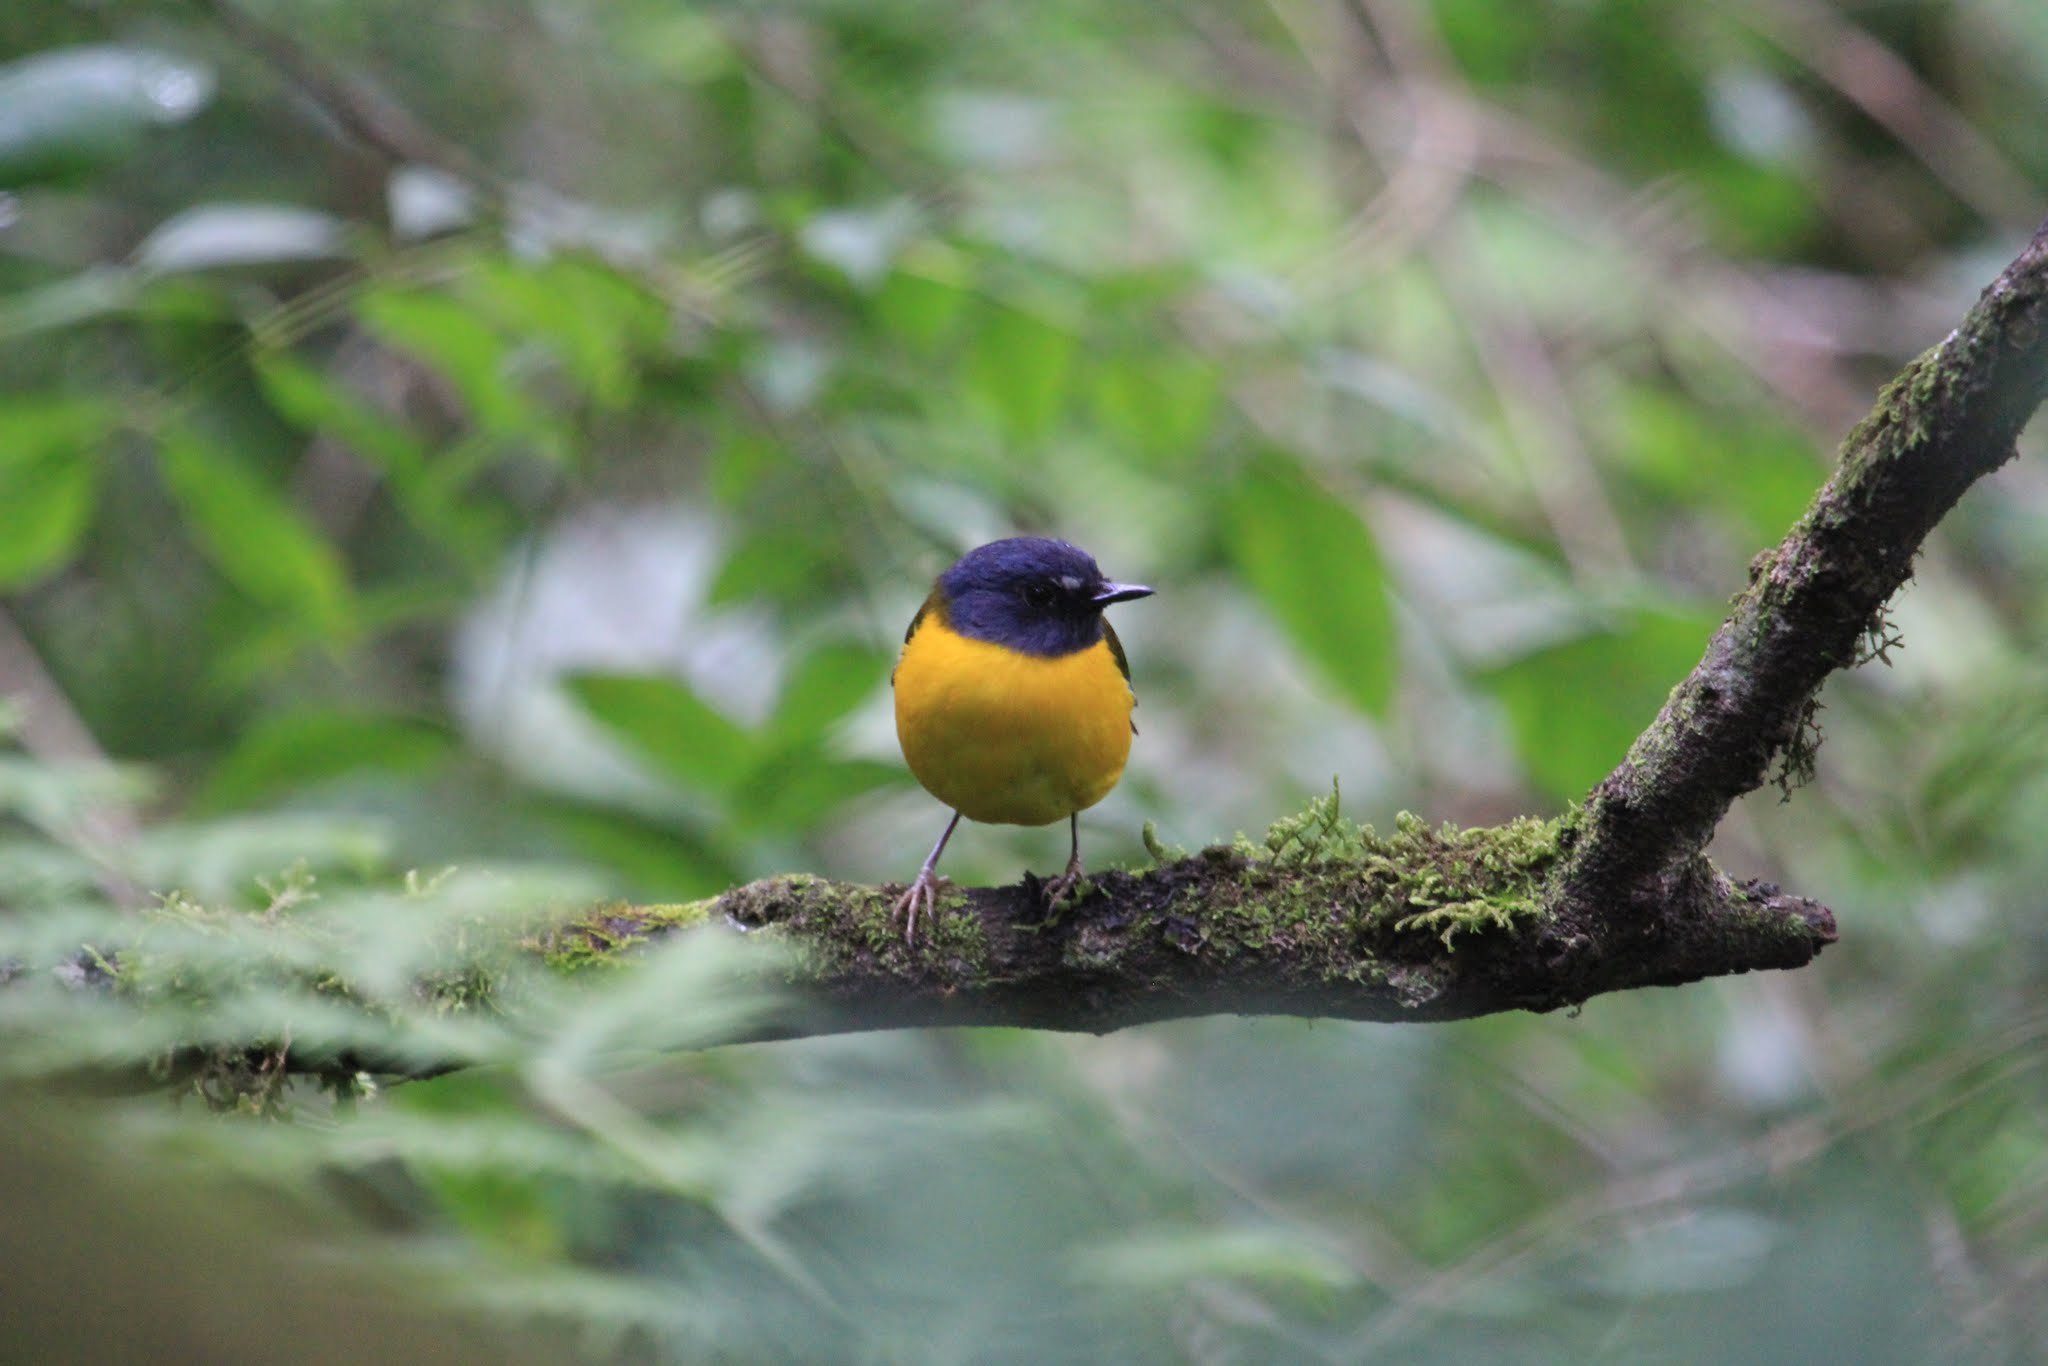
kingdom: Animalia
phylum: Chordata
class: Aves
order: Passeriformes
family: Muscicapidae
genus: Pogonocichla
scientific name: Pogonocichla stellata
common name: White-starred robin
